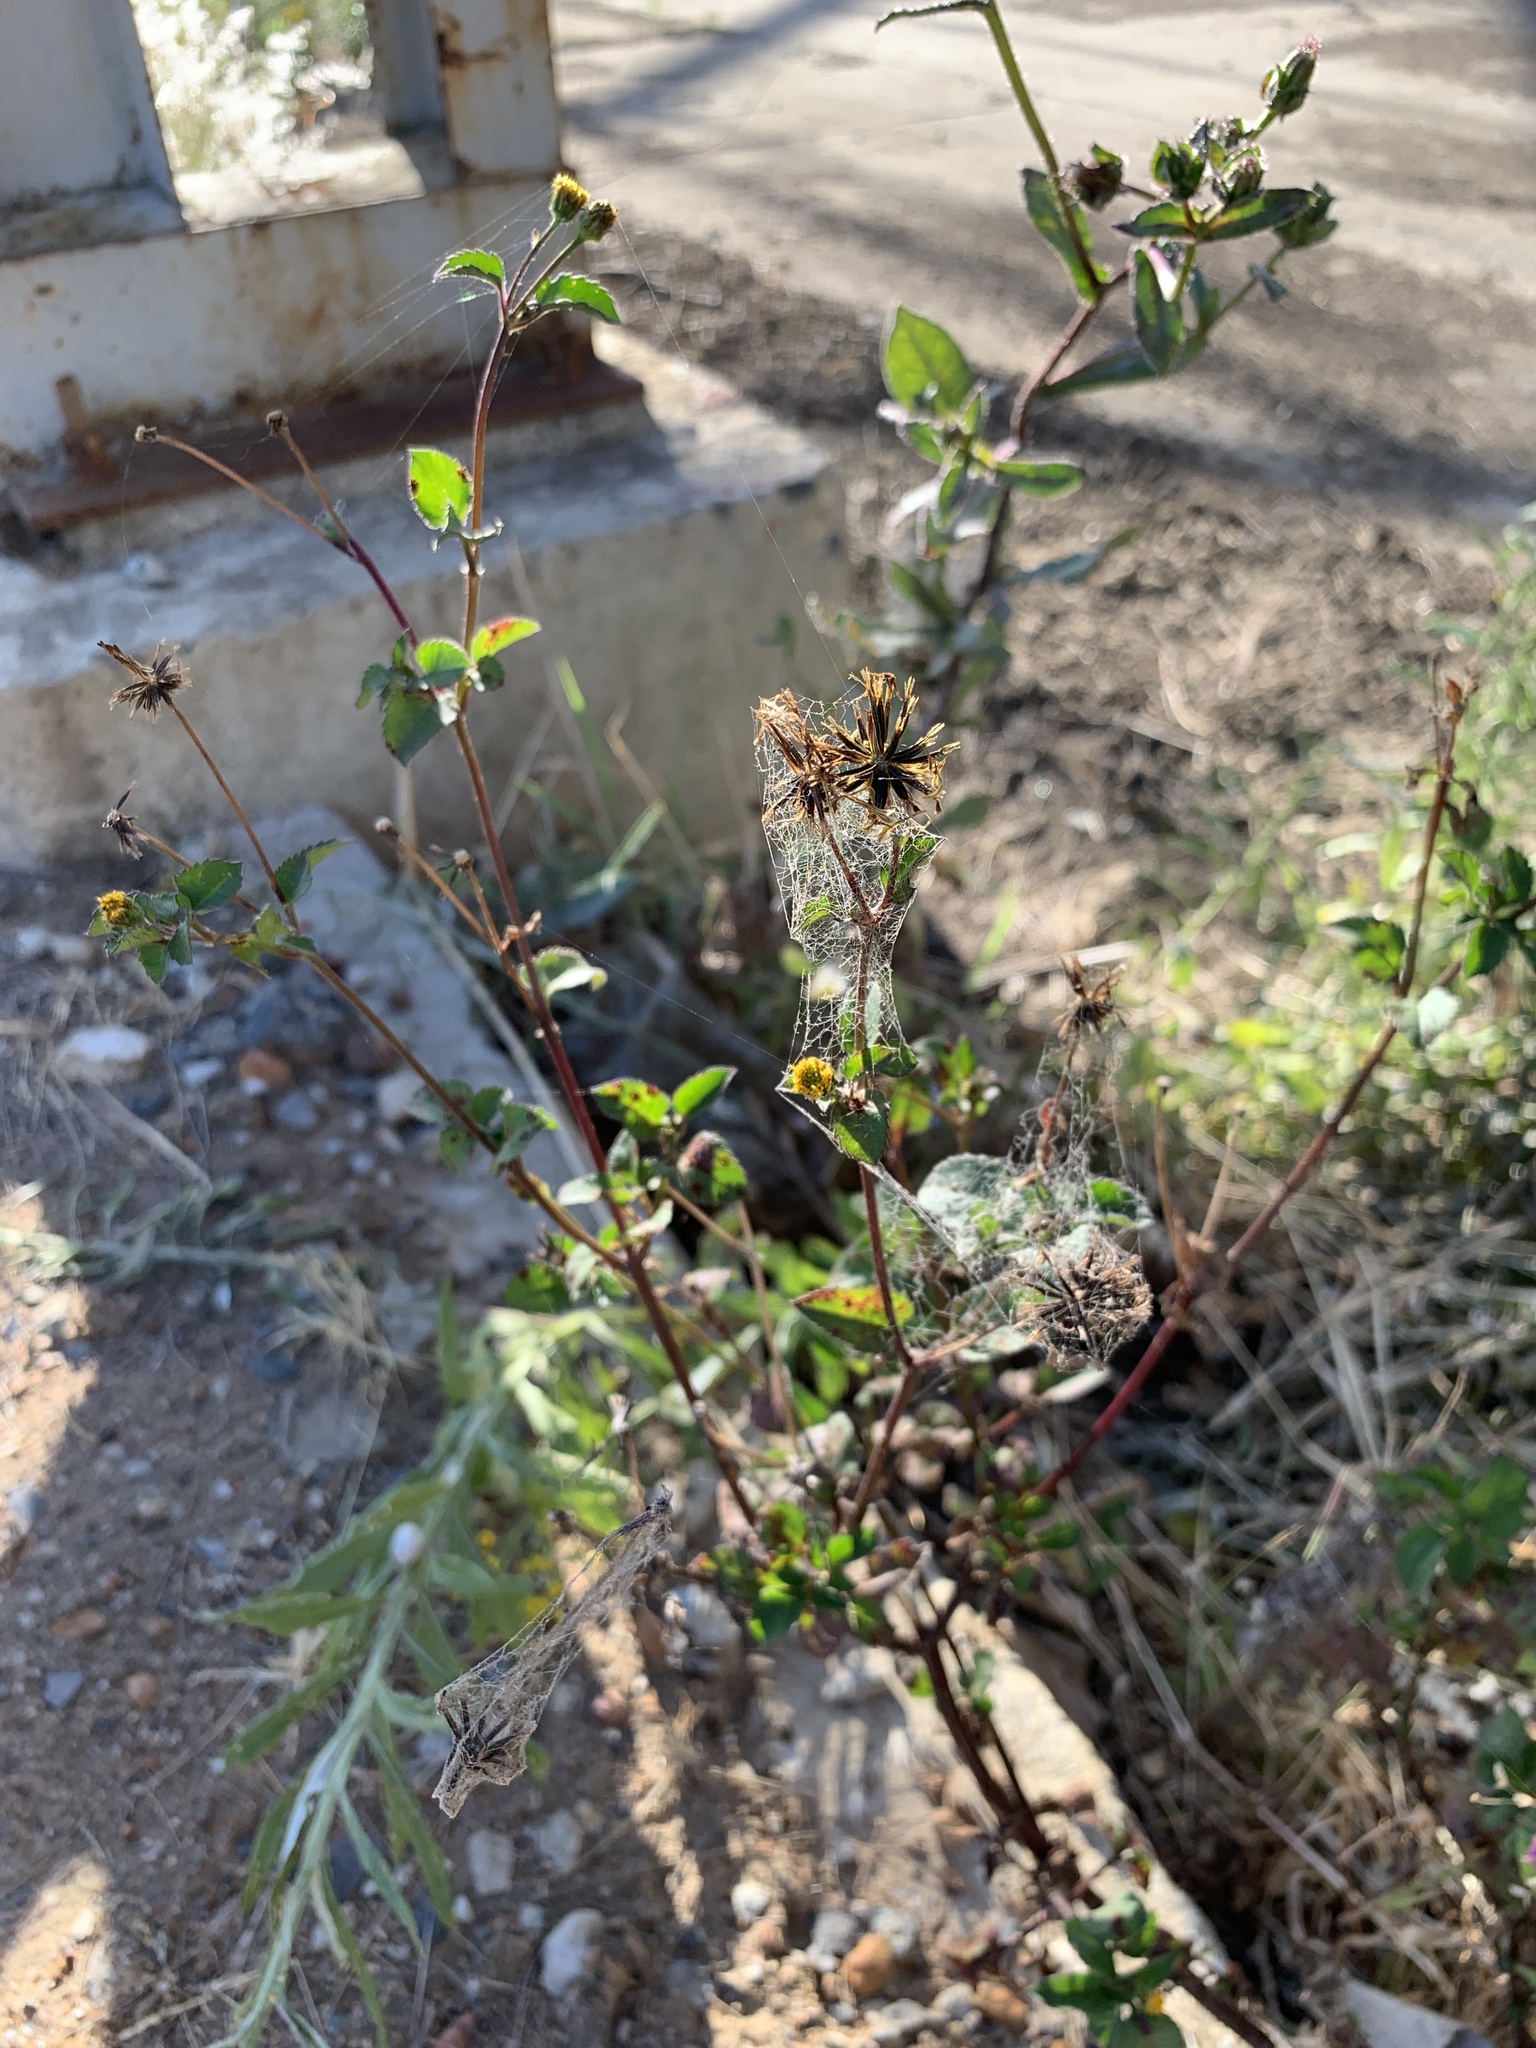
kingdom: Plantae
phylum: Tracheophyta
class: Magnoliopsida
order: Asterales
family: Asteraceae
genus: Bidens
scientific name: Bidens pilosa
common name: Black-jack
